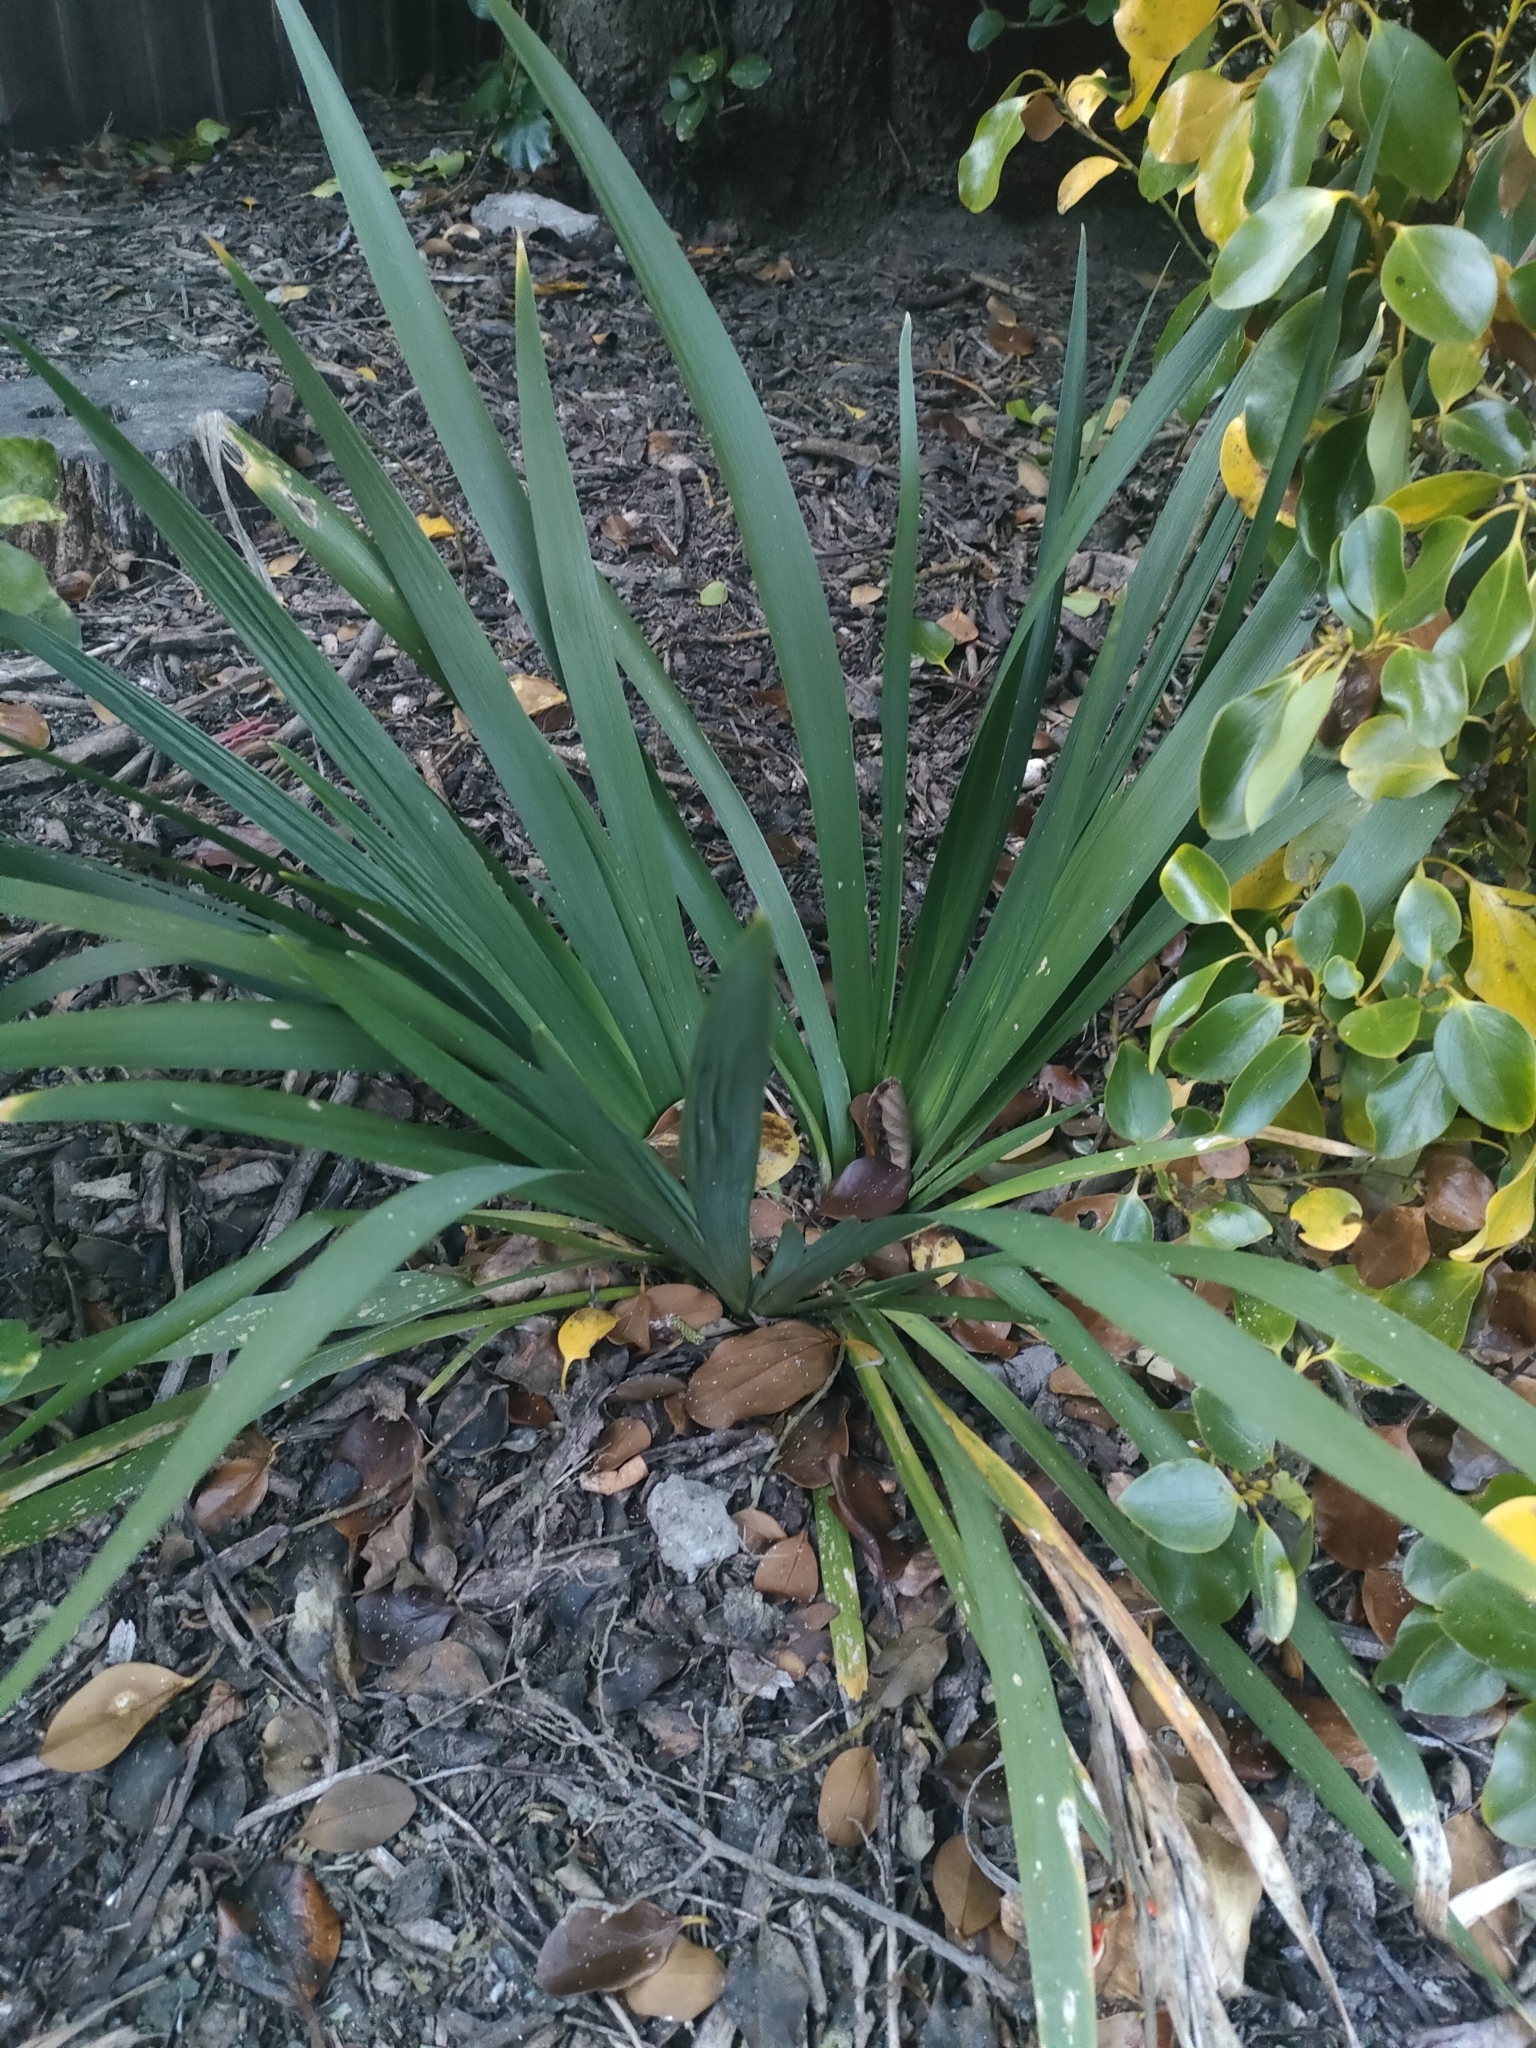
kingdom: Plantae
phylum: Tracheophyta
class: Liliopsida
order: Asparagales
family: Iridaceae
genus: Iris
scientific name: Iris foetidissima
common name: Stinking iris
